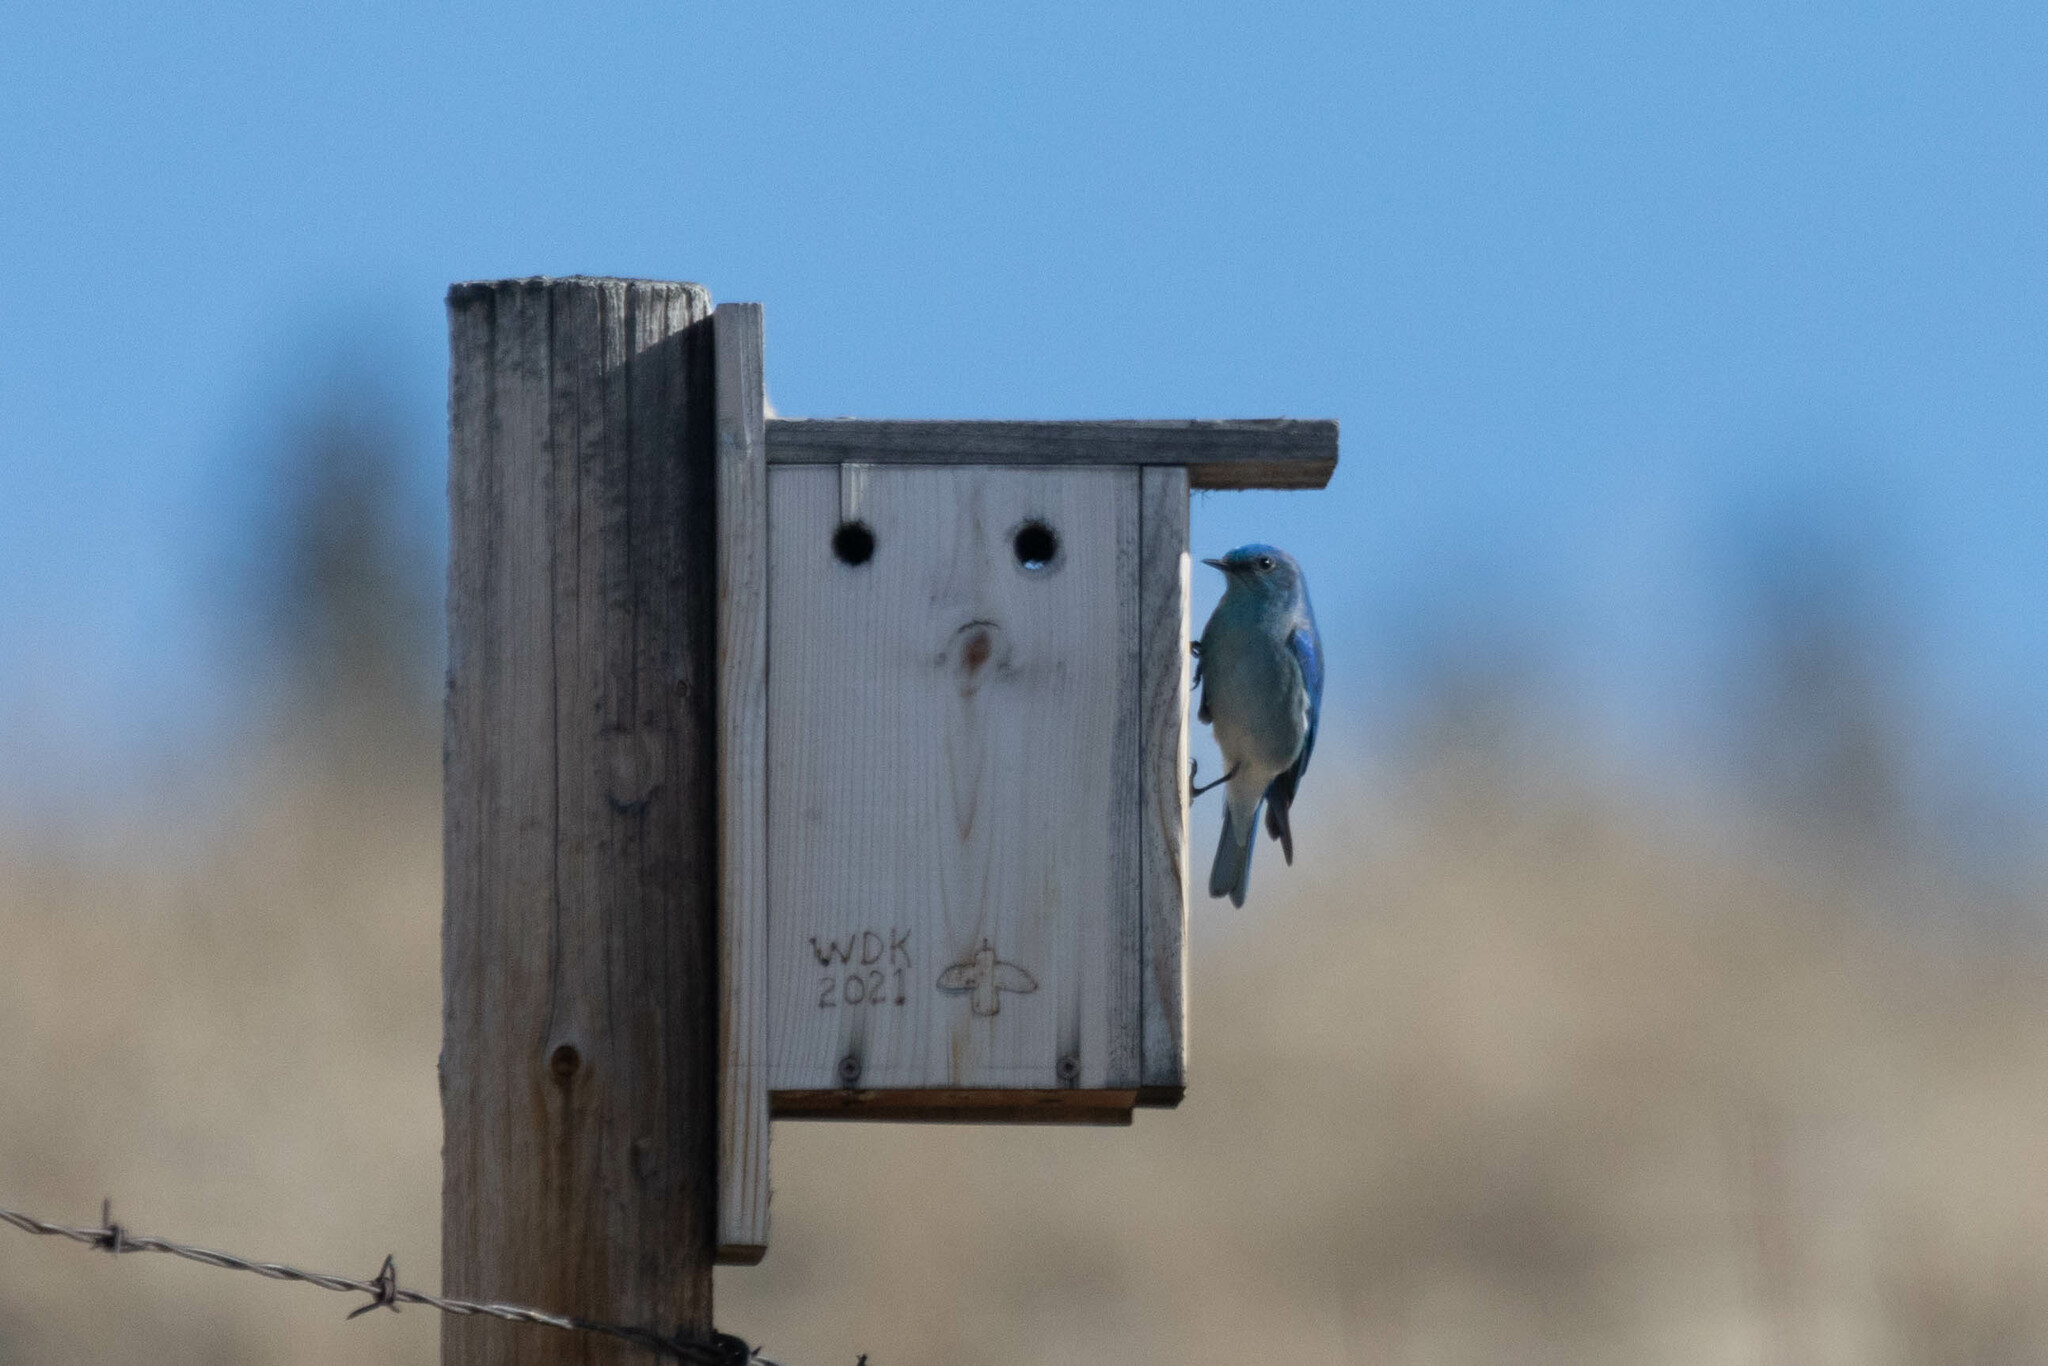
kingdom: Animalia
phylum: Chordata
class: Aves
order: Passeriformes
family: Turdidae
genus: Sialia
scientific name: Sialia currucoides
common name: Mountain bluebird
